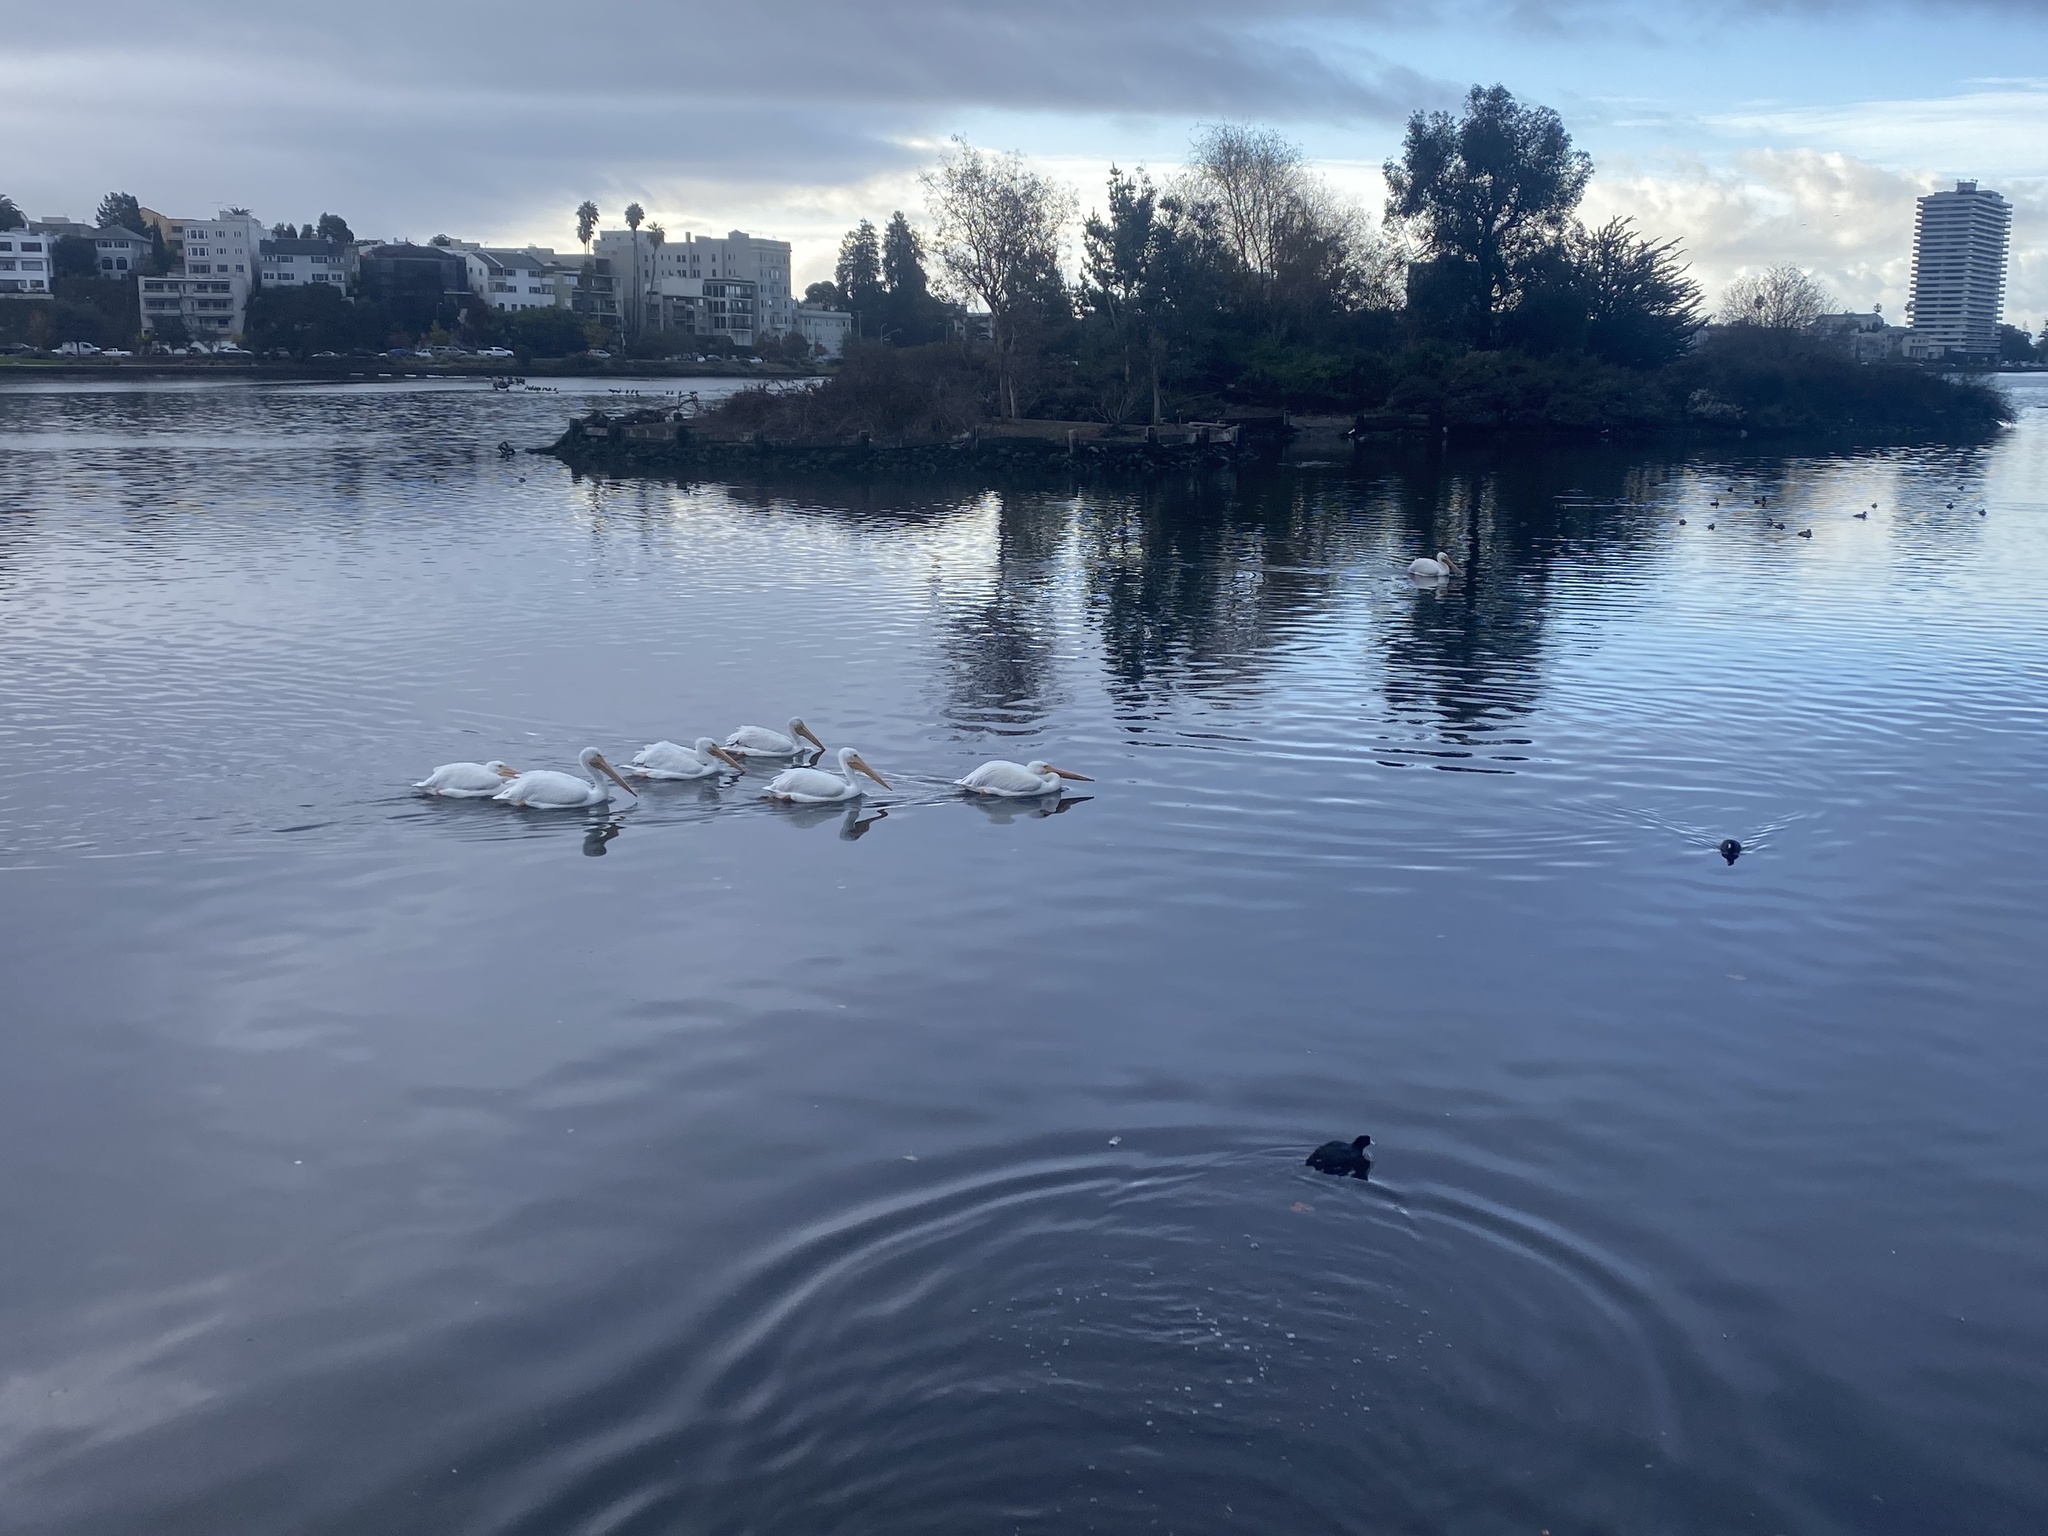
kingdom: Animalia
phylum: Chordata
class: Aves
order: Pelecaniformes
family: Pelecanidae
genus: Pelecanus
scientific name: Pelecanus erythrorhynchos
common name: American white pelican
